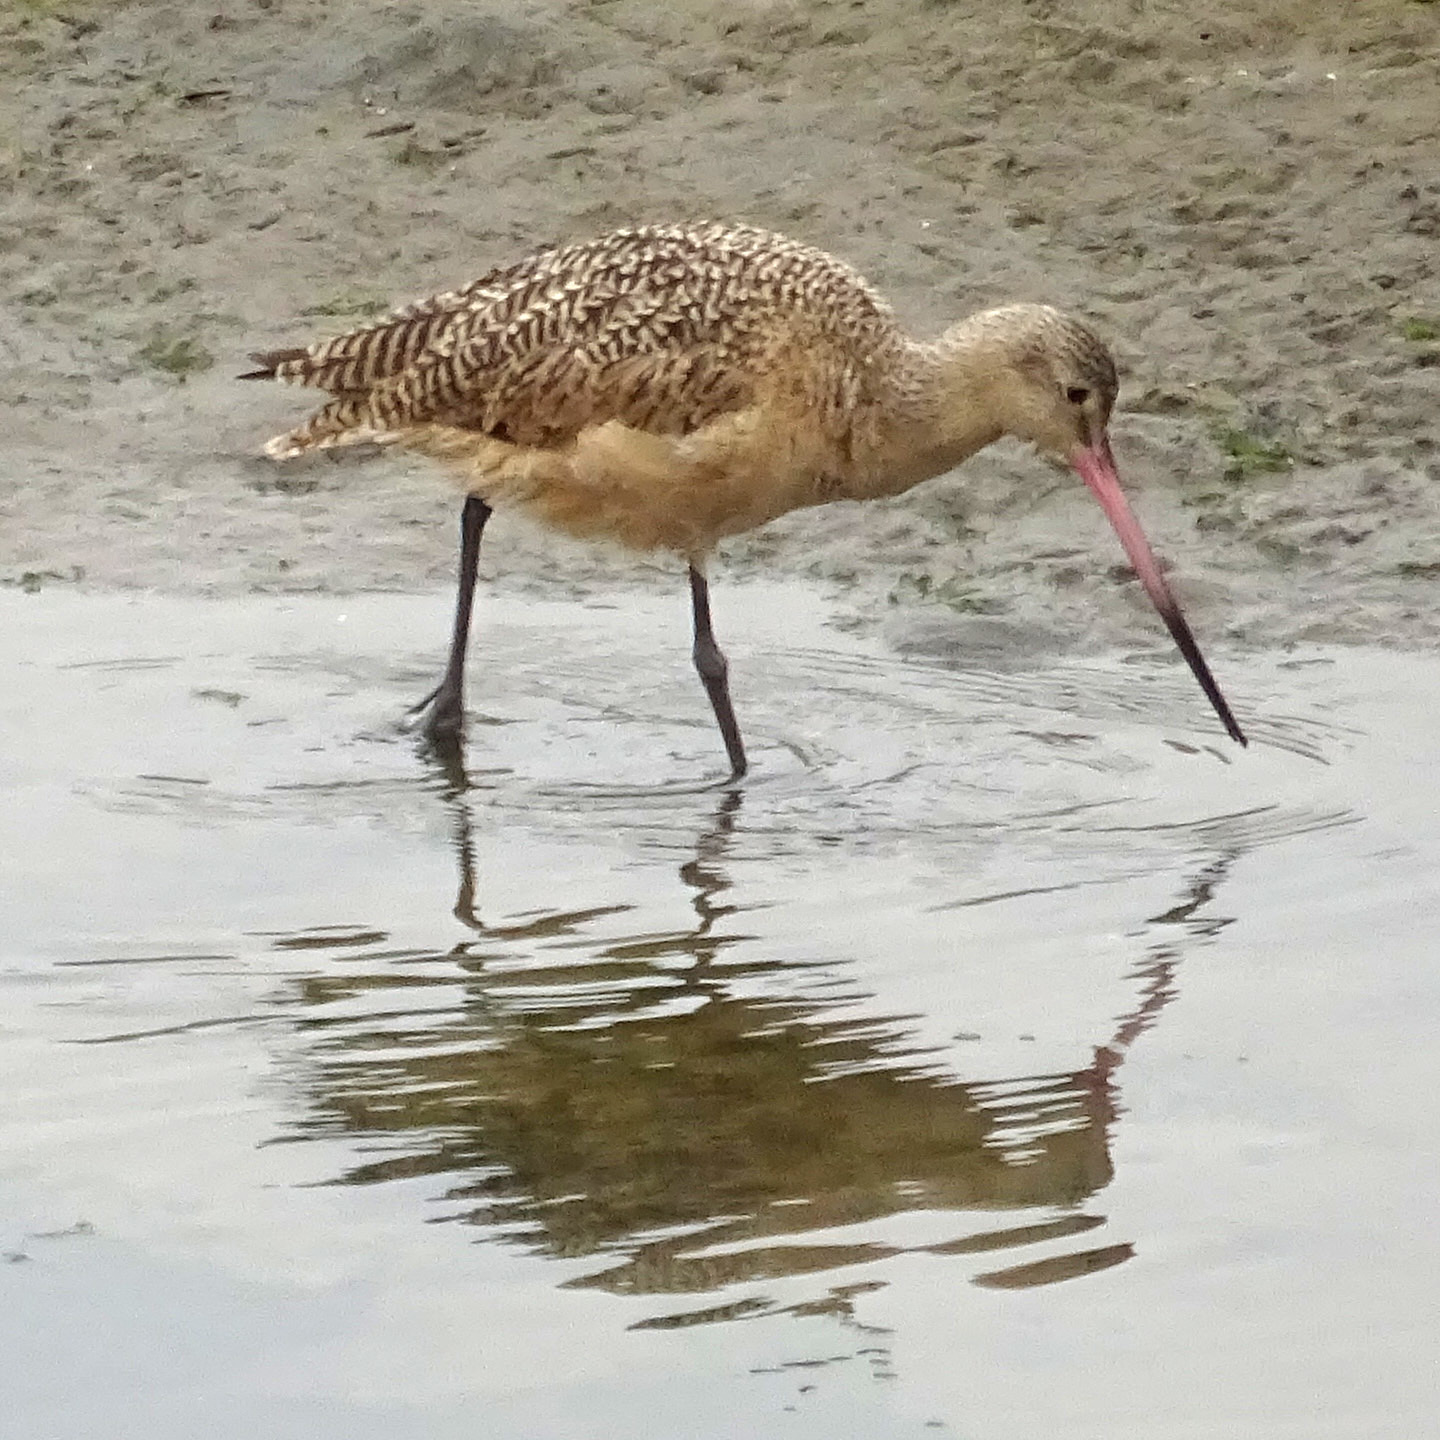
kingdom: Animalia
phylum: Chordata
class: Aves
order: Charadriiformes
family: Scolopacidae
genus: Limosa
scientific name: Limosa fedoa
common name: Marbled godwit
